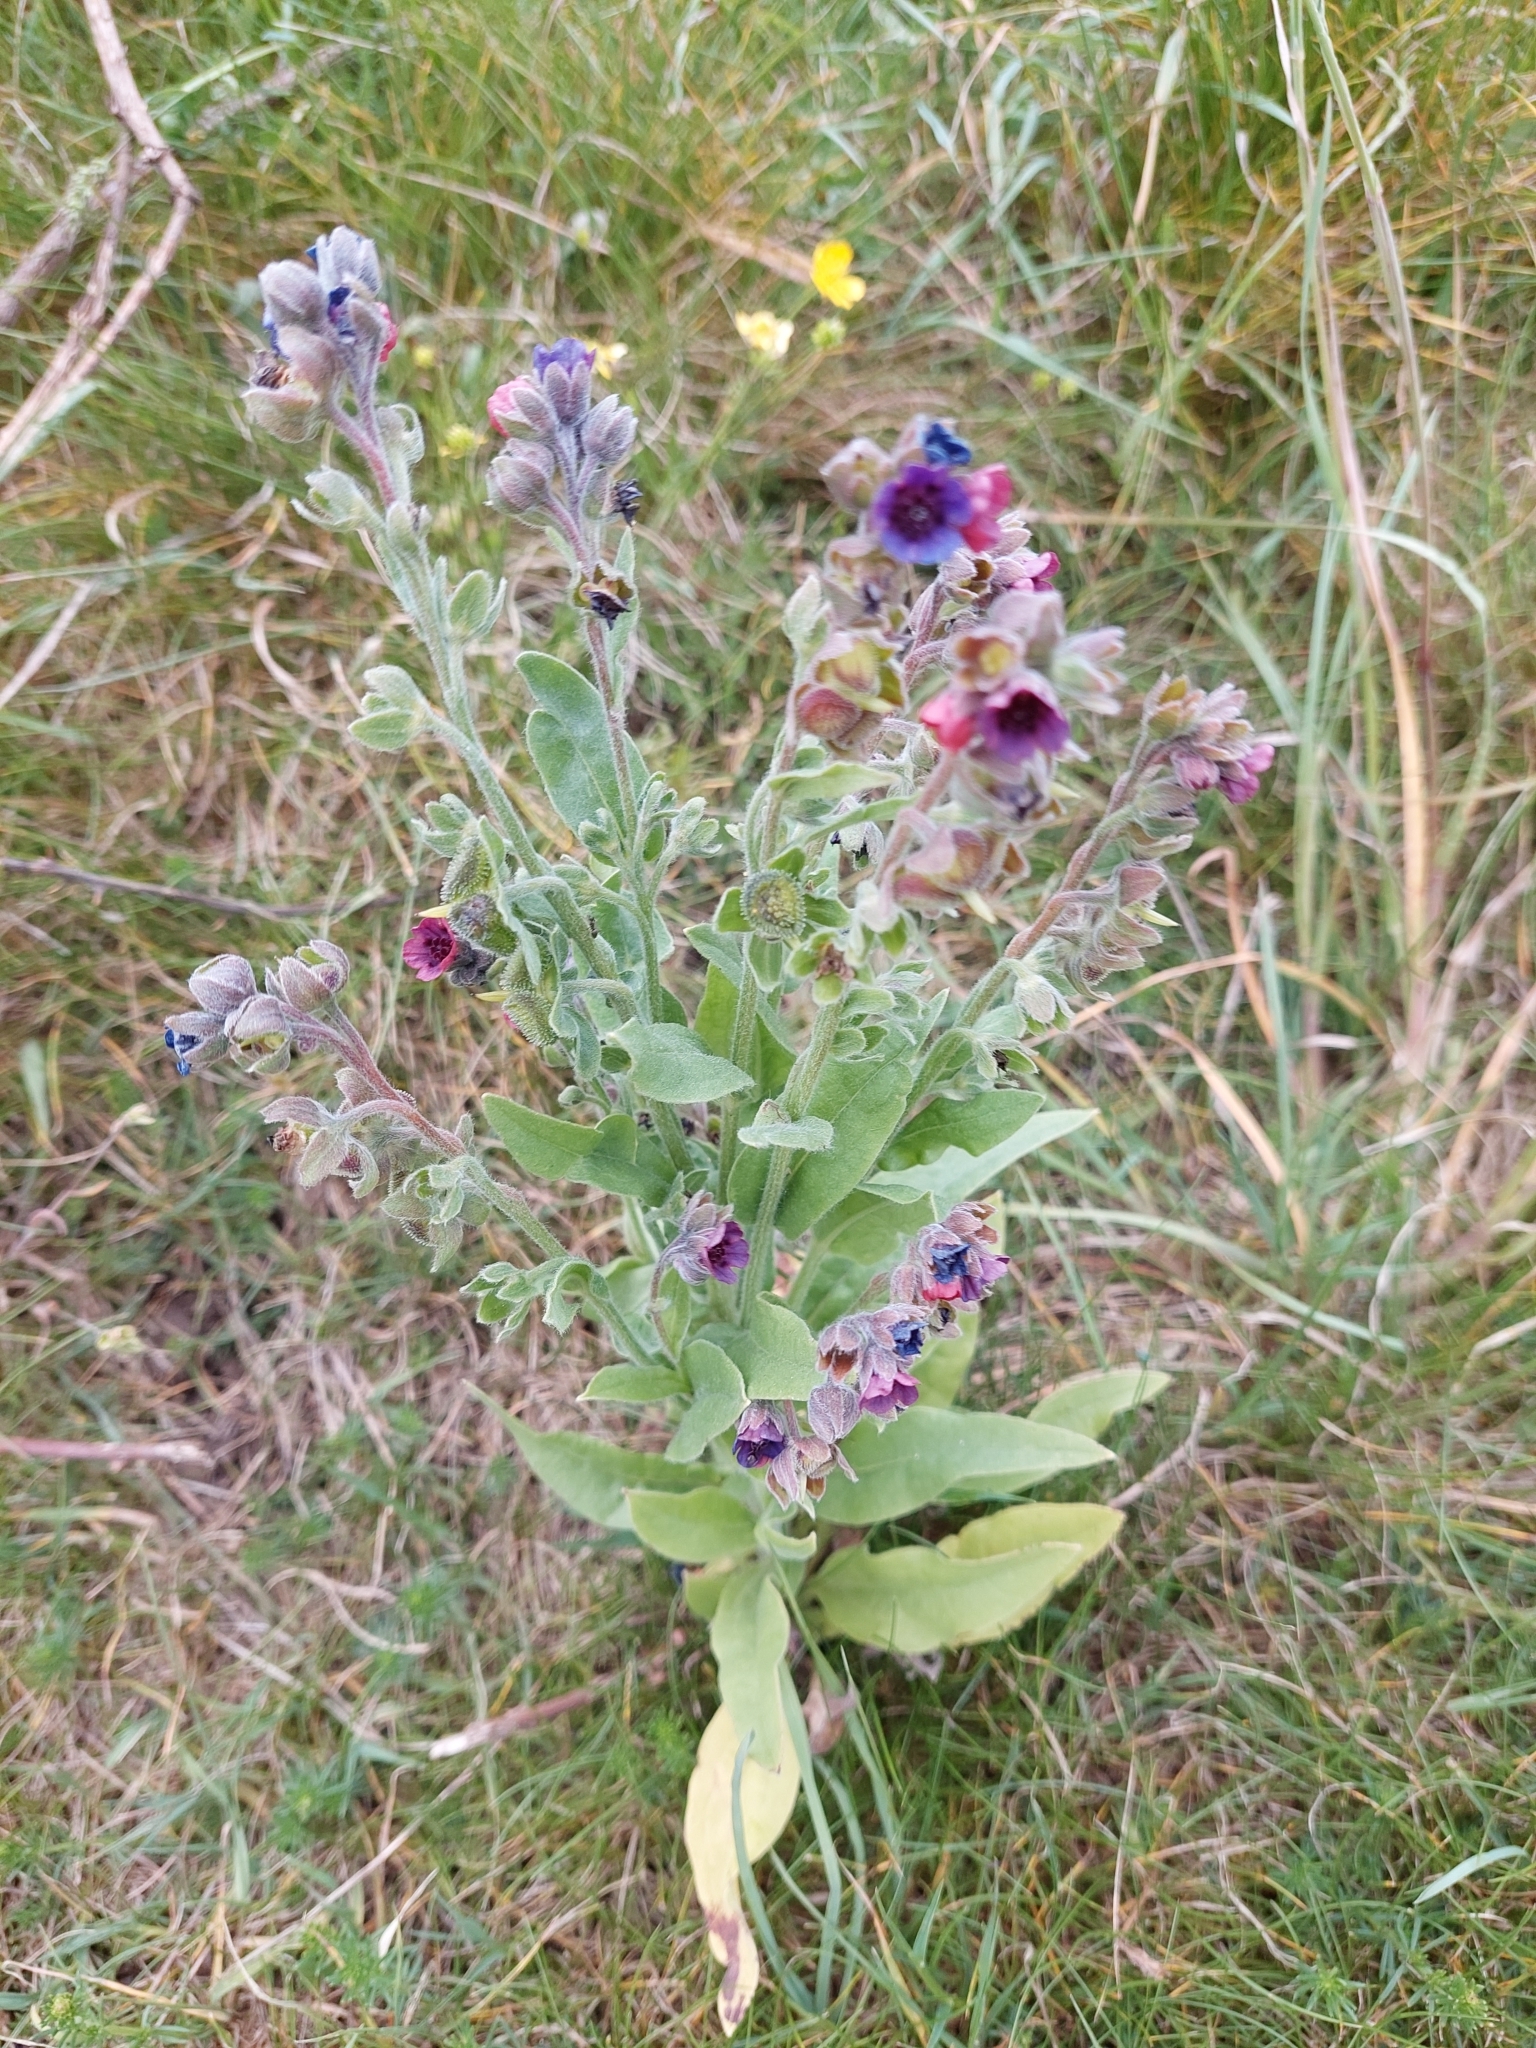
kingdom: Plantae
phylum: Tracheophyta
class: Magnoliopsida
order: Boraginales
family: Boraginaceae
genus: Cynoglossum
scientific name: Cynoglossum officinale
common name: Hound's-tongue
